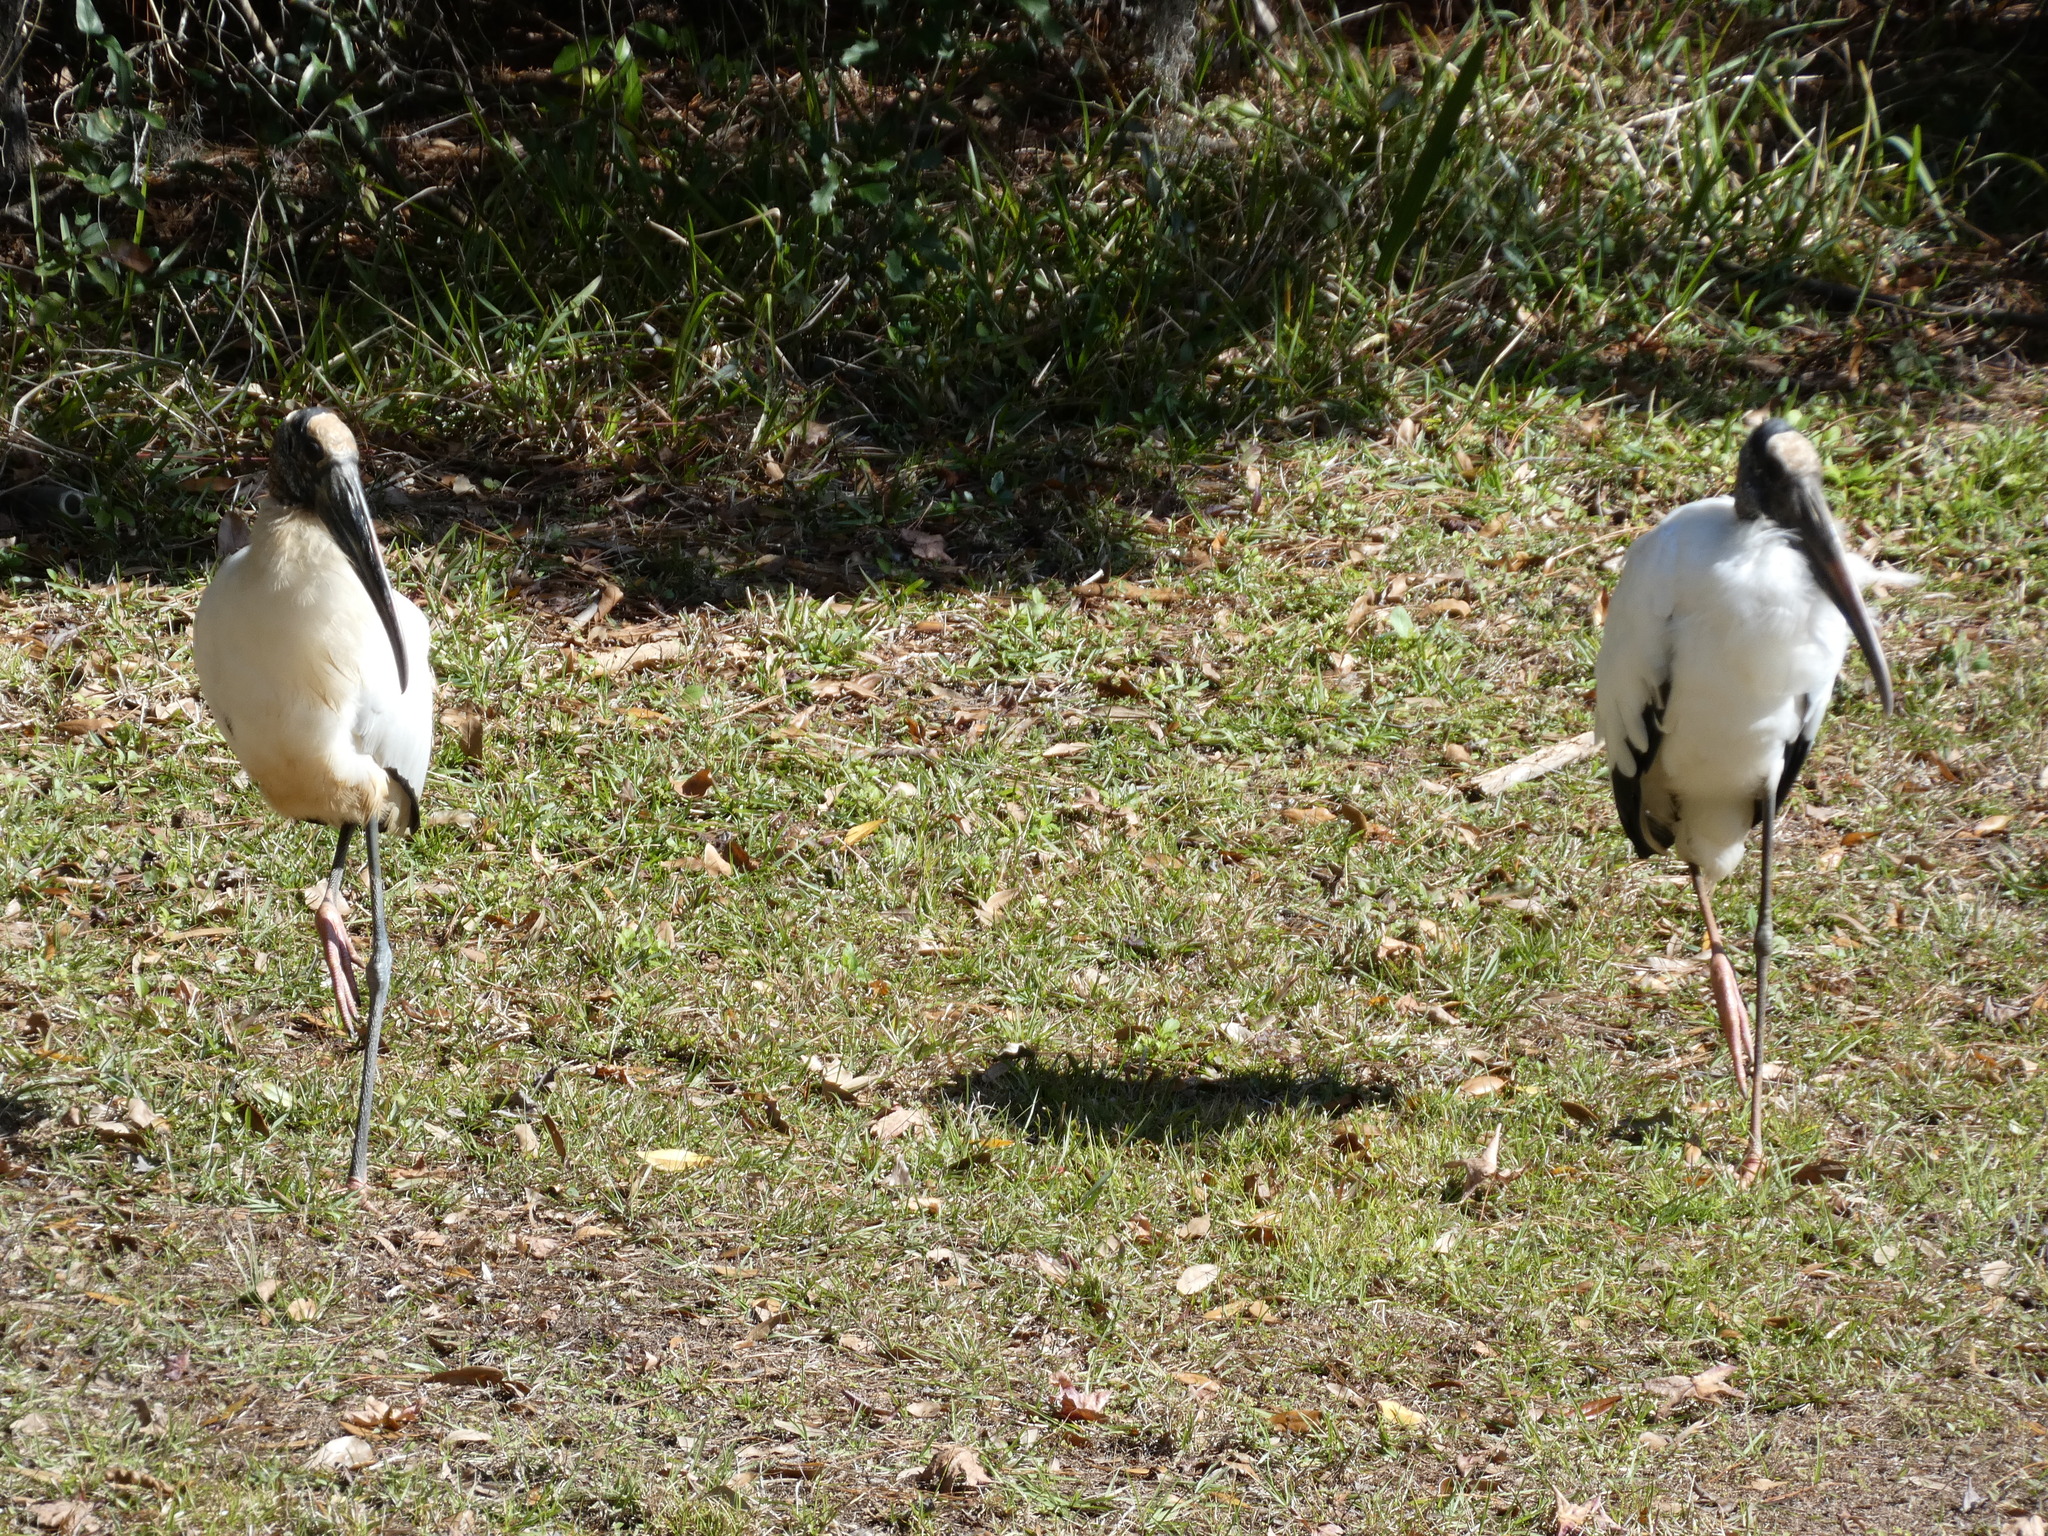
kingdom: Animalia
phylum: Chordata
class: Aves
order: Ciconiiformes
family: Ciconiidae
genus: Mycteria
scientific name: Mycteria americana
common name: Wood stork
